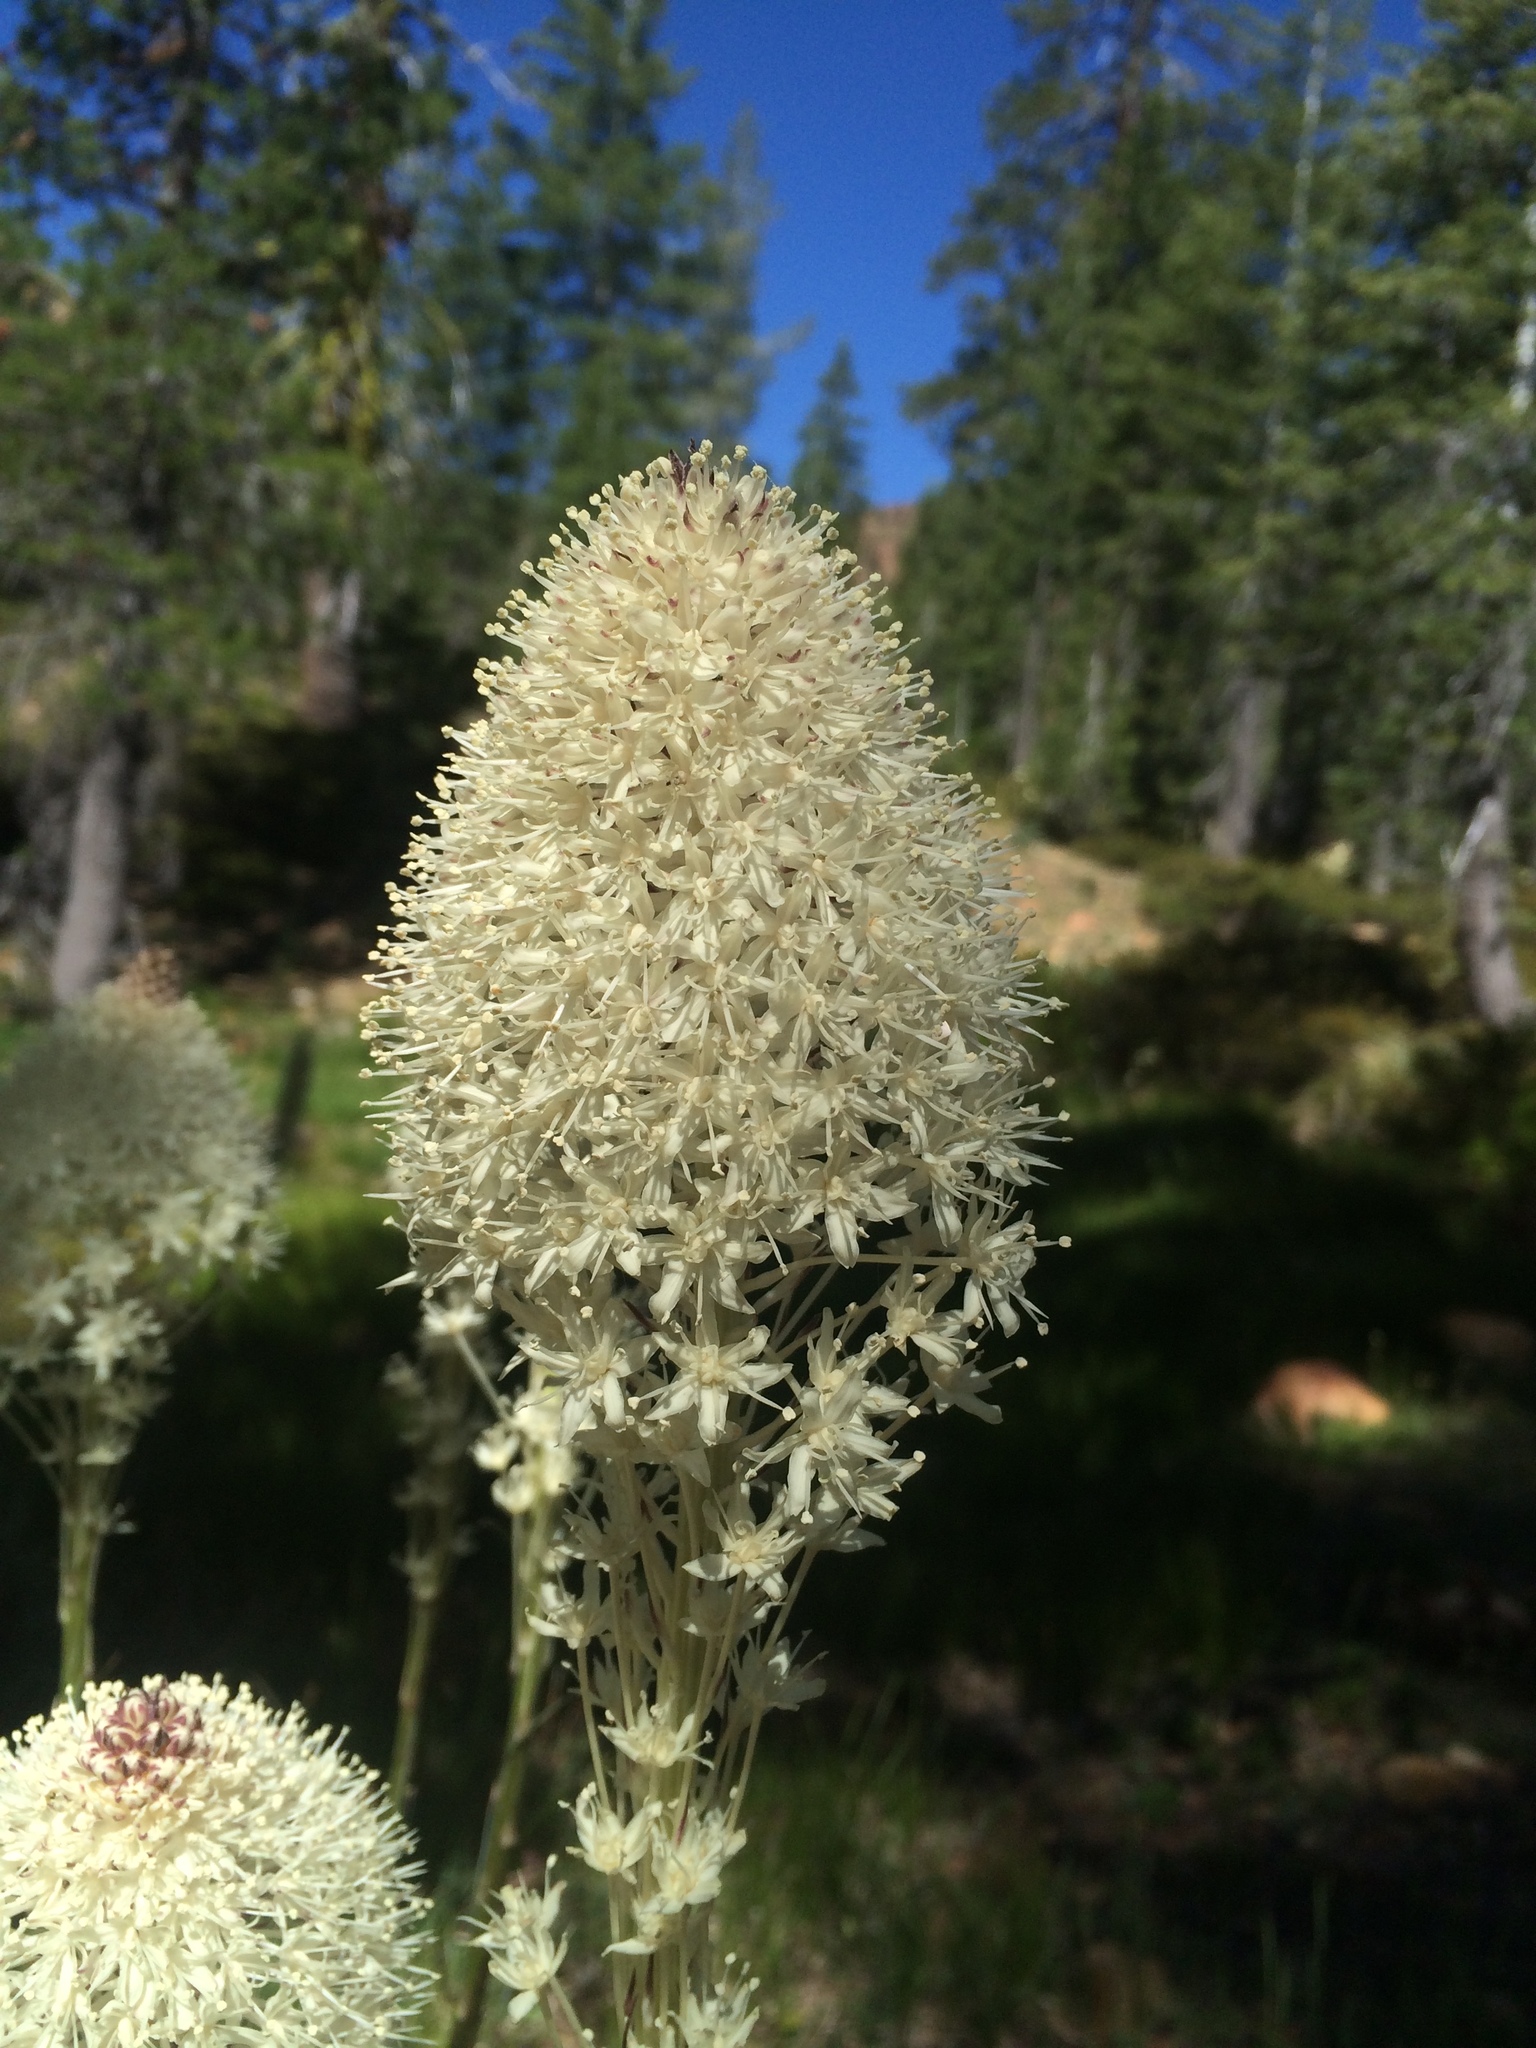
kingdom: Plantae
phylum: Tracheophyta
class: Liliopsida
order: Liliales
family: Melanthiaceae
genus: Xerophyllum
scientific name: Xerophyllum tenax
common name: Bear-grass
